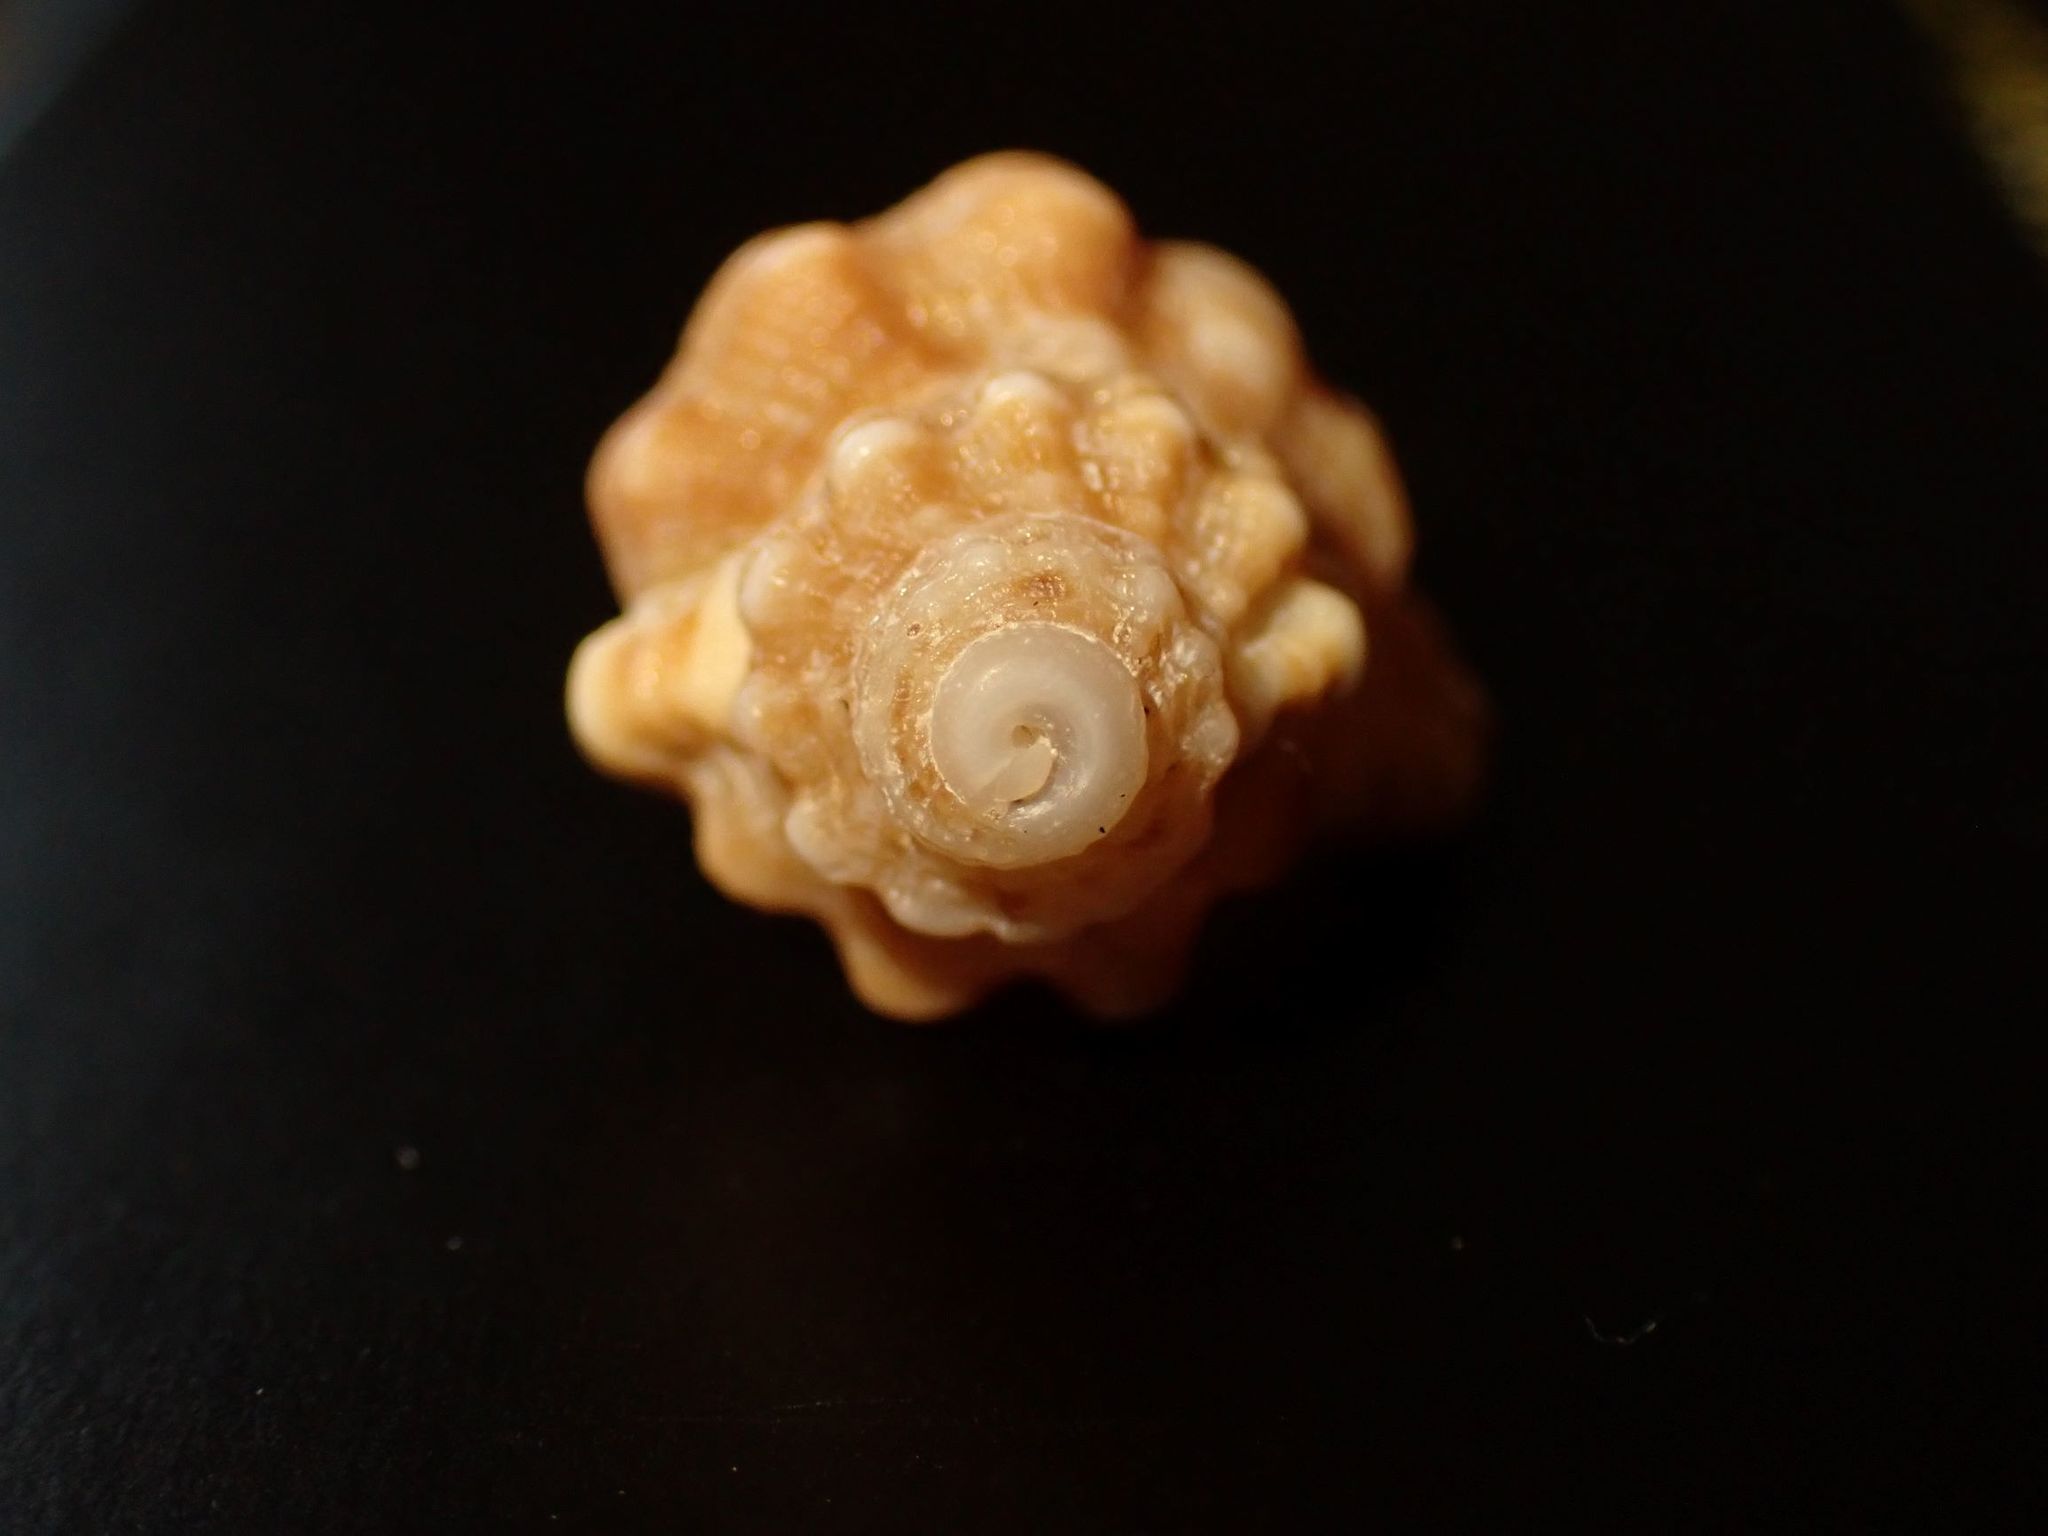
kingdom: Animalia
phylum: Mollusca
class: Gastropoda
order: Littorinimorpha
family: Cymatiidae
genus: Cabestana
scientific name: Cabestana tabulata
